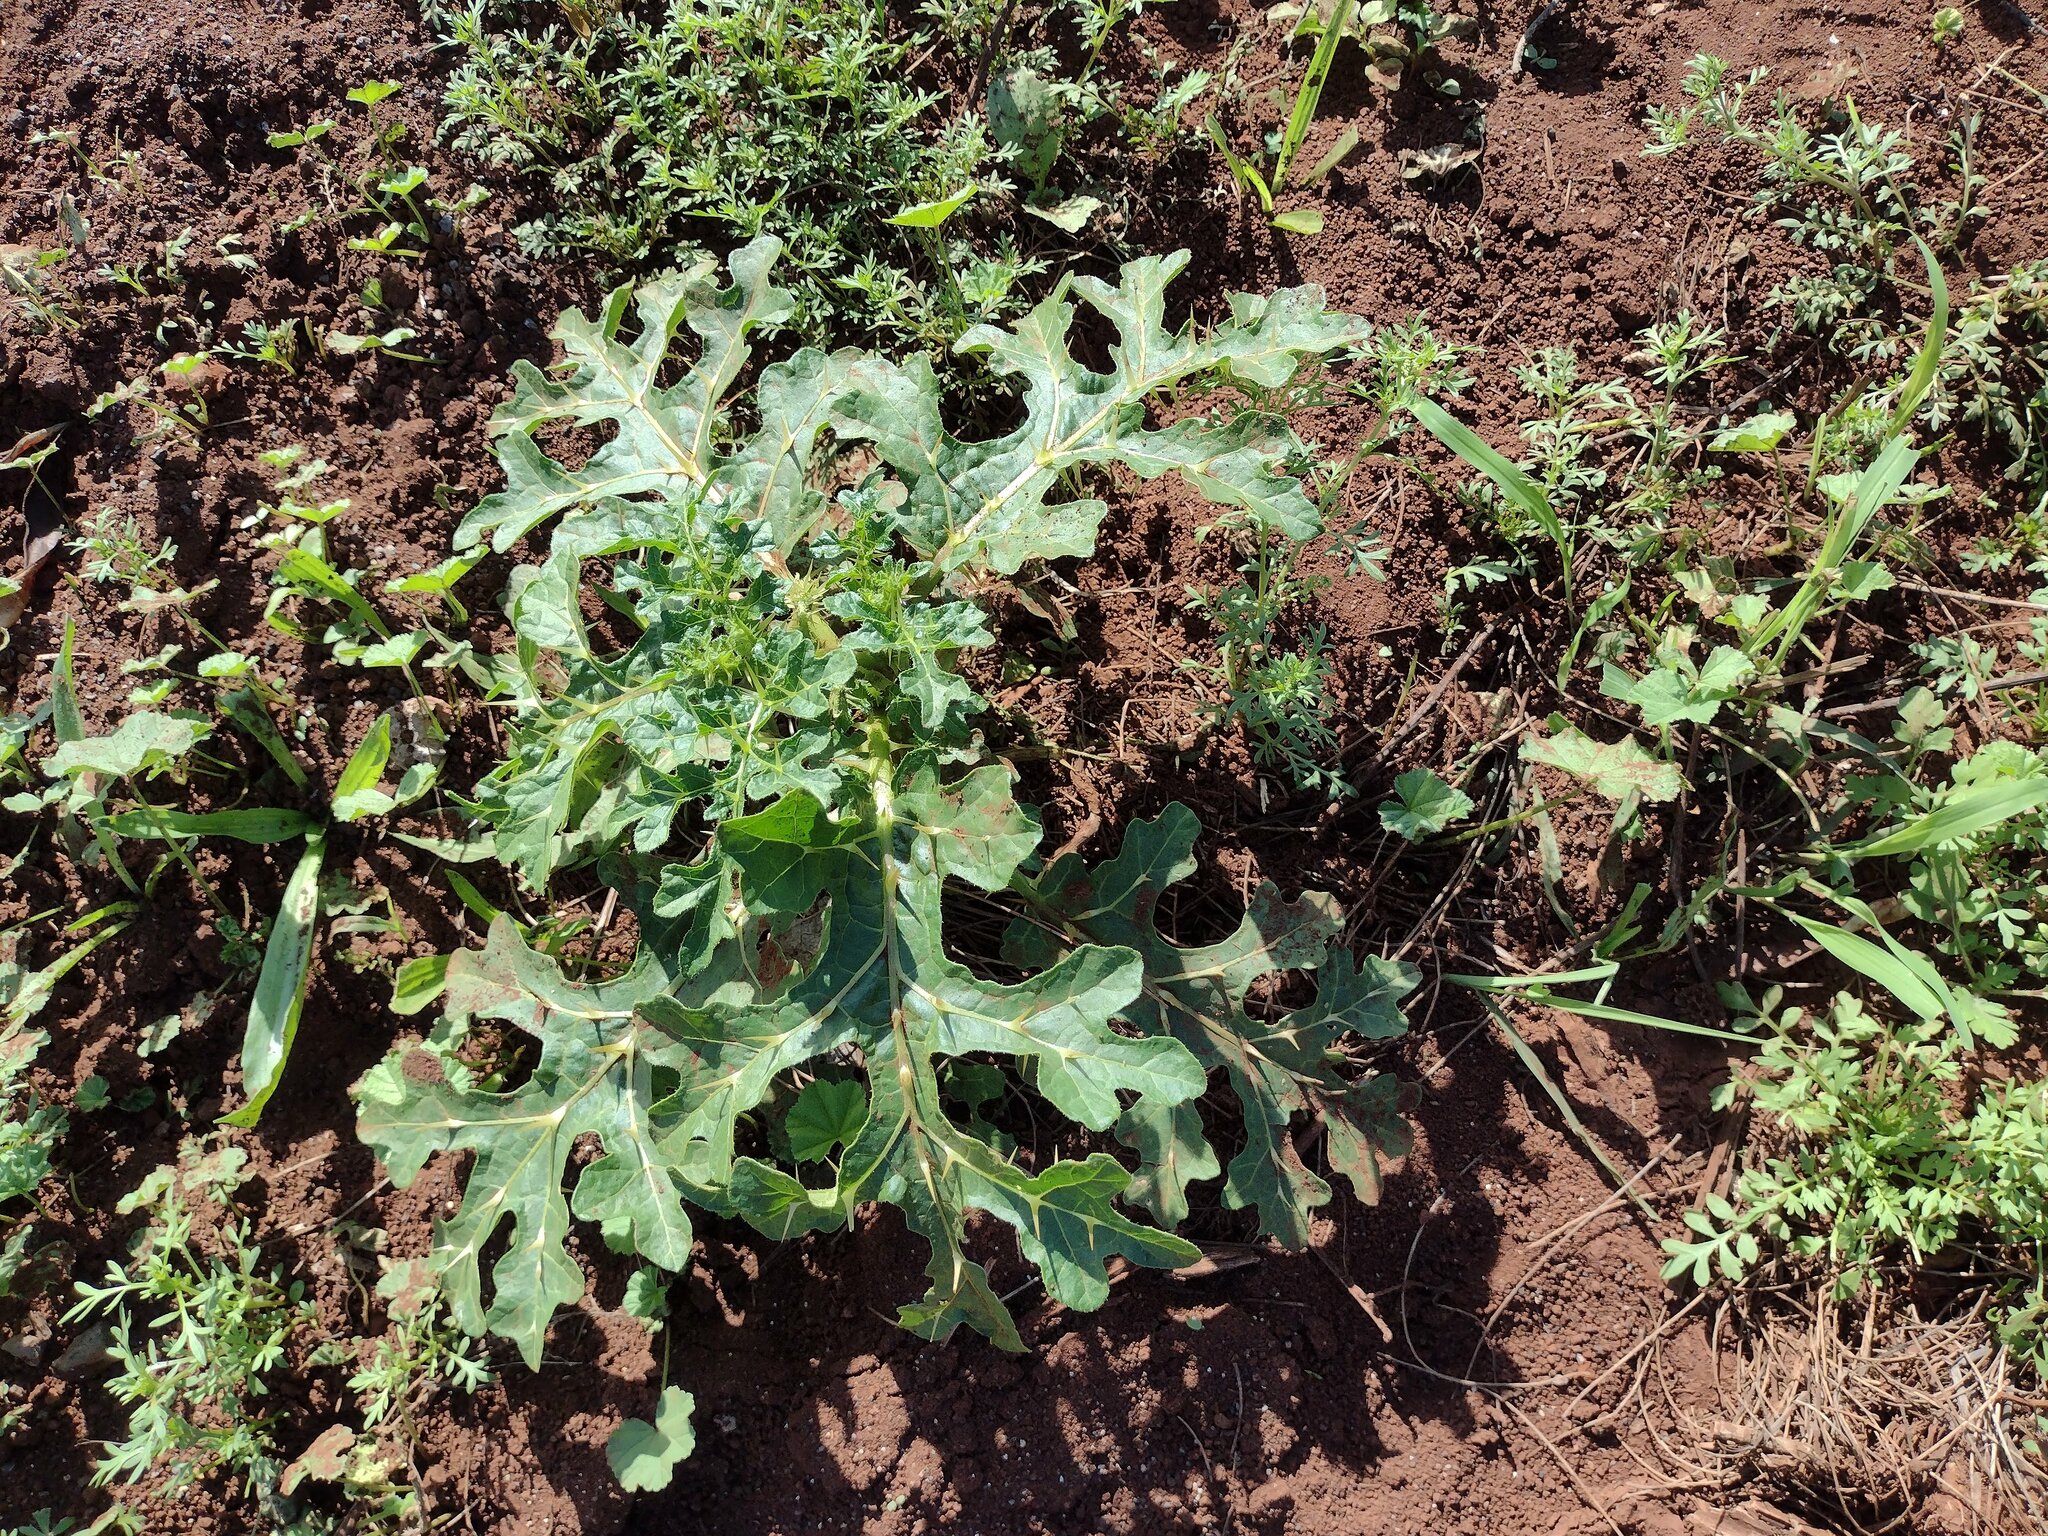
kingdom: Plantae
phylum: Tracheophyta
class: Magnoliopsida
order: Solanales
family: Solanaceae
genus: Solanum
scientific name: Solanum linnaeanum
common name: Nightshade
